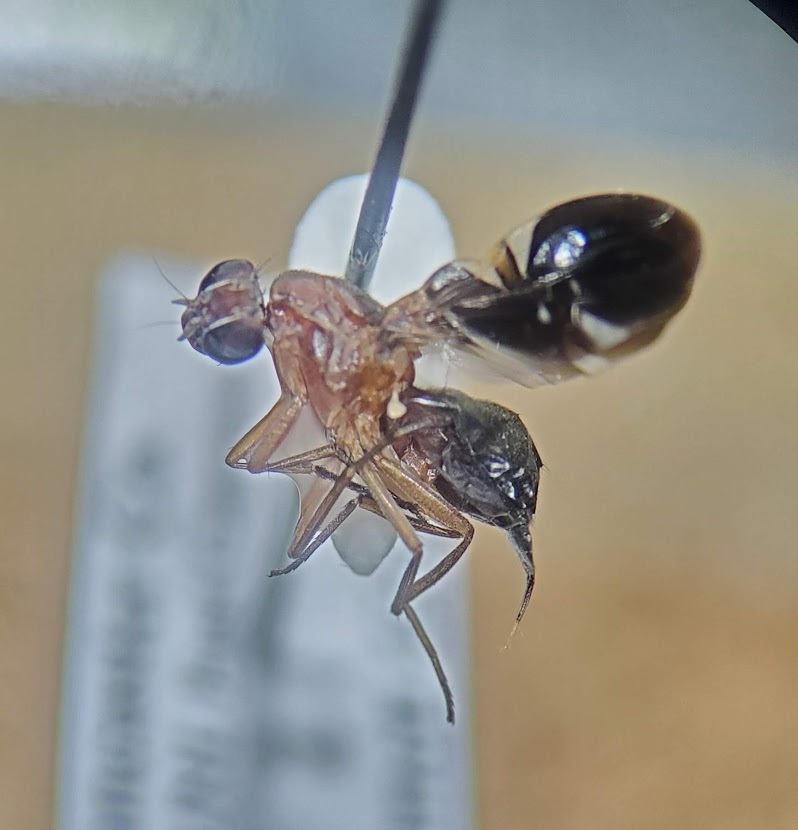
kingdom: Animalia
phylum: Arthropoda
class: Insecta
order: Diptera
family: Ulidiidae
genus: Delphinia
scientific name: Delphinia picta
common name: Common picture-winged fly
